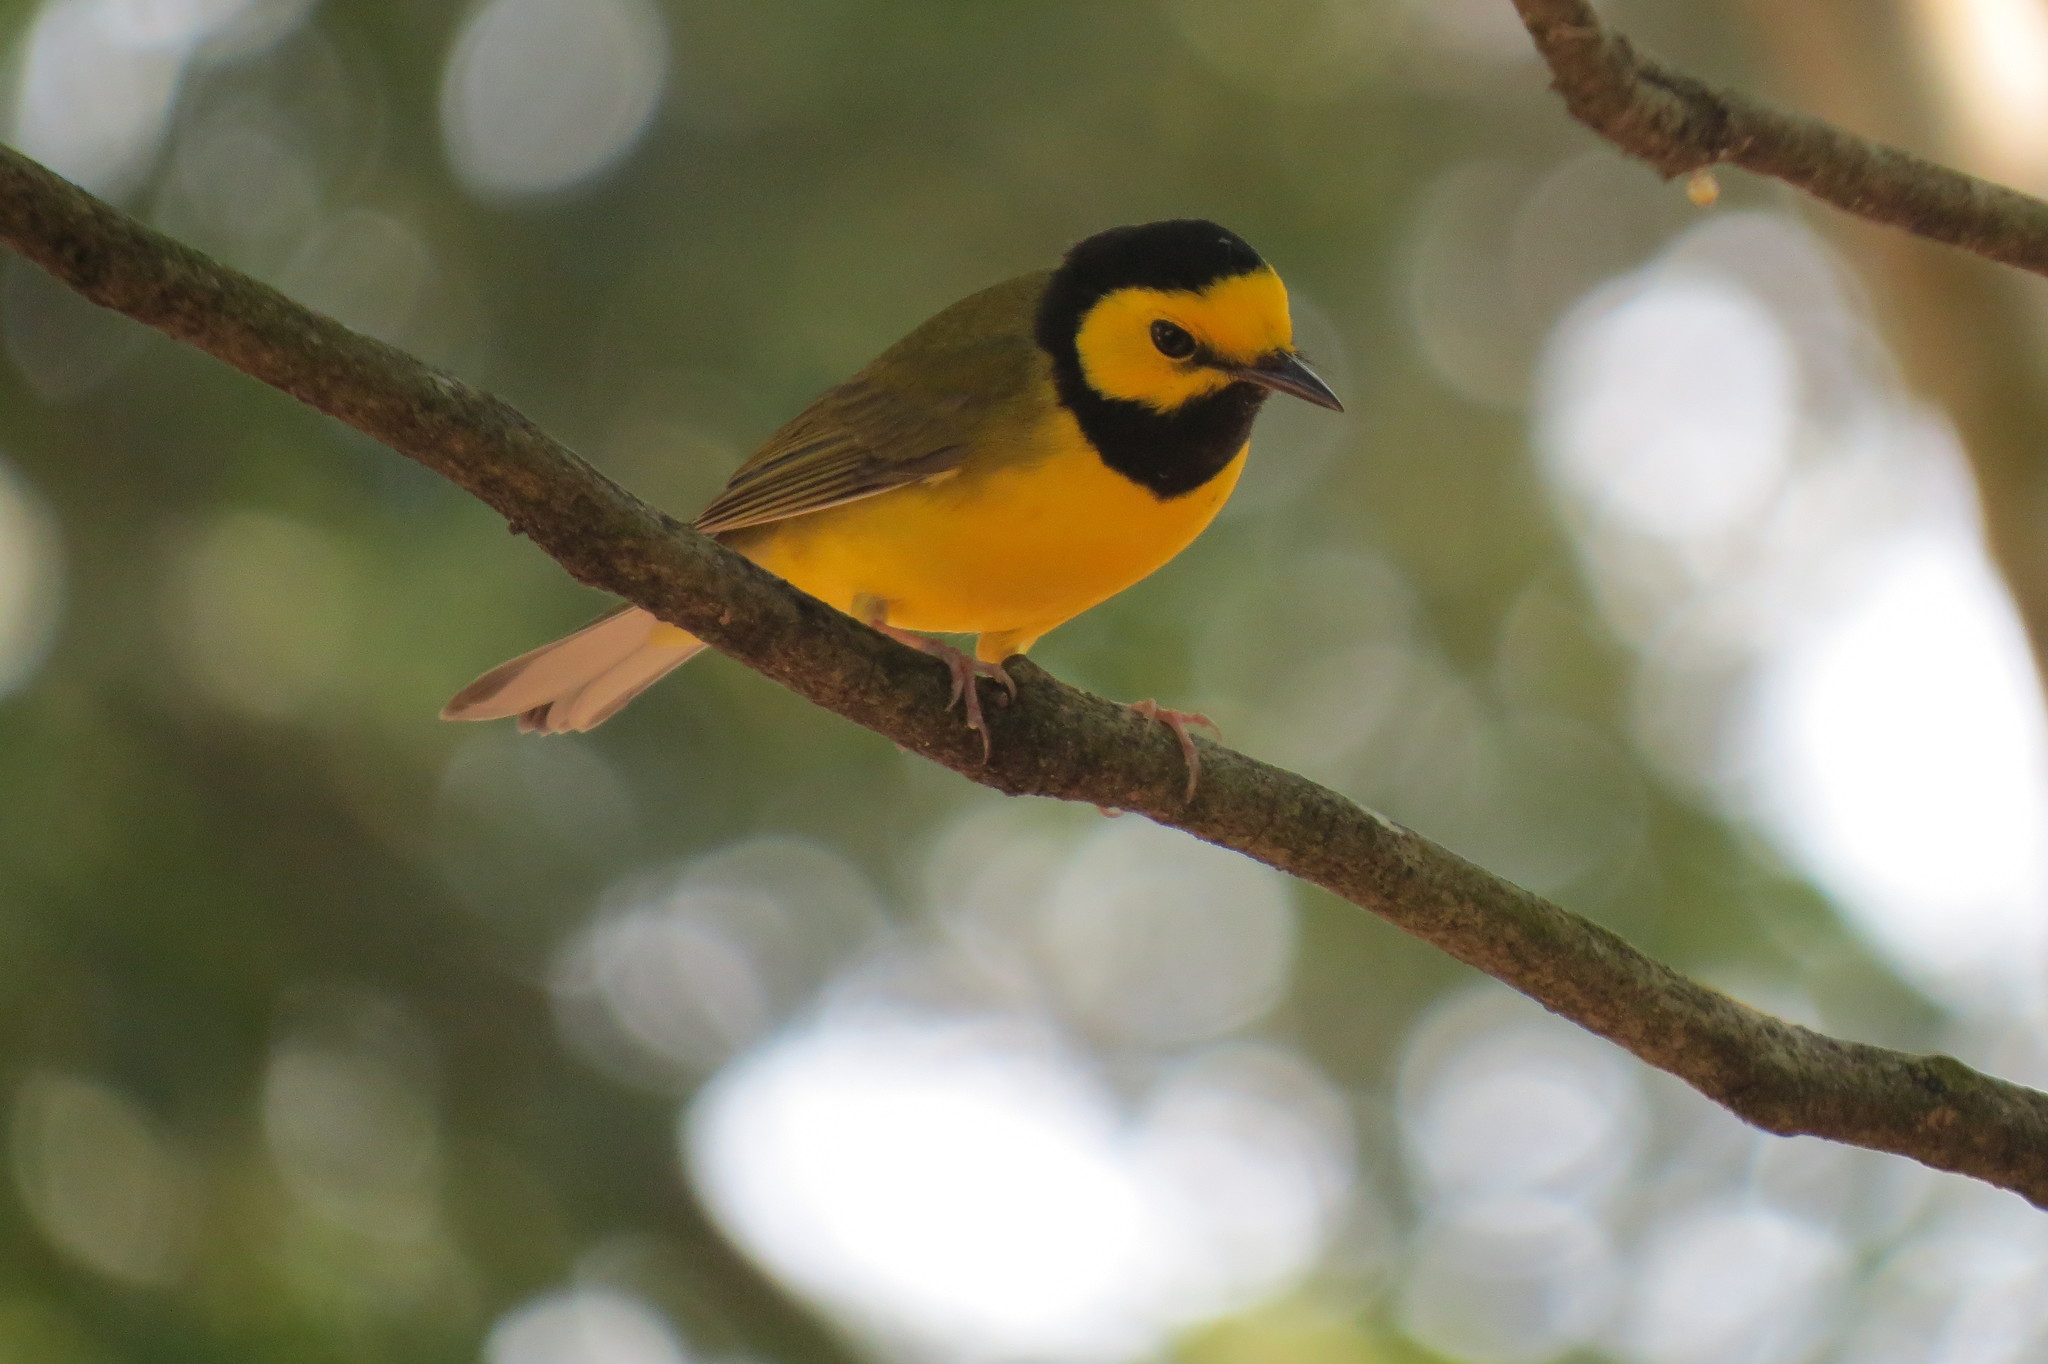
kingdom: Animalia
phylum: Chordata
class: Aves
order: Passeriformes
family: Parulidae
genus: Setophaga
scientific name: Setophaga citrina
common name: Hooded warbler
